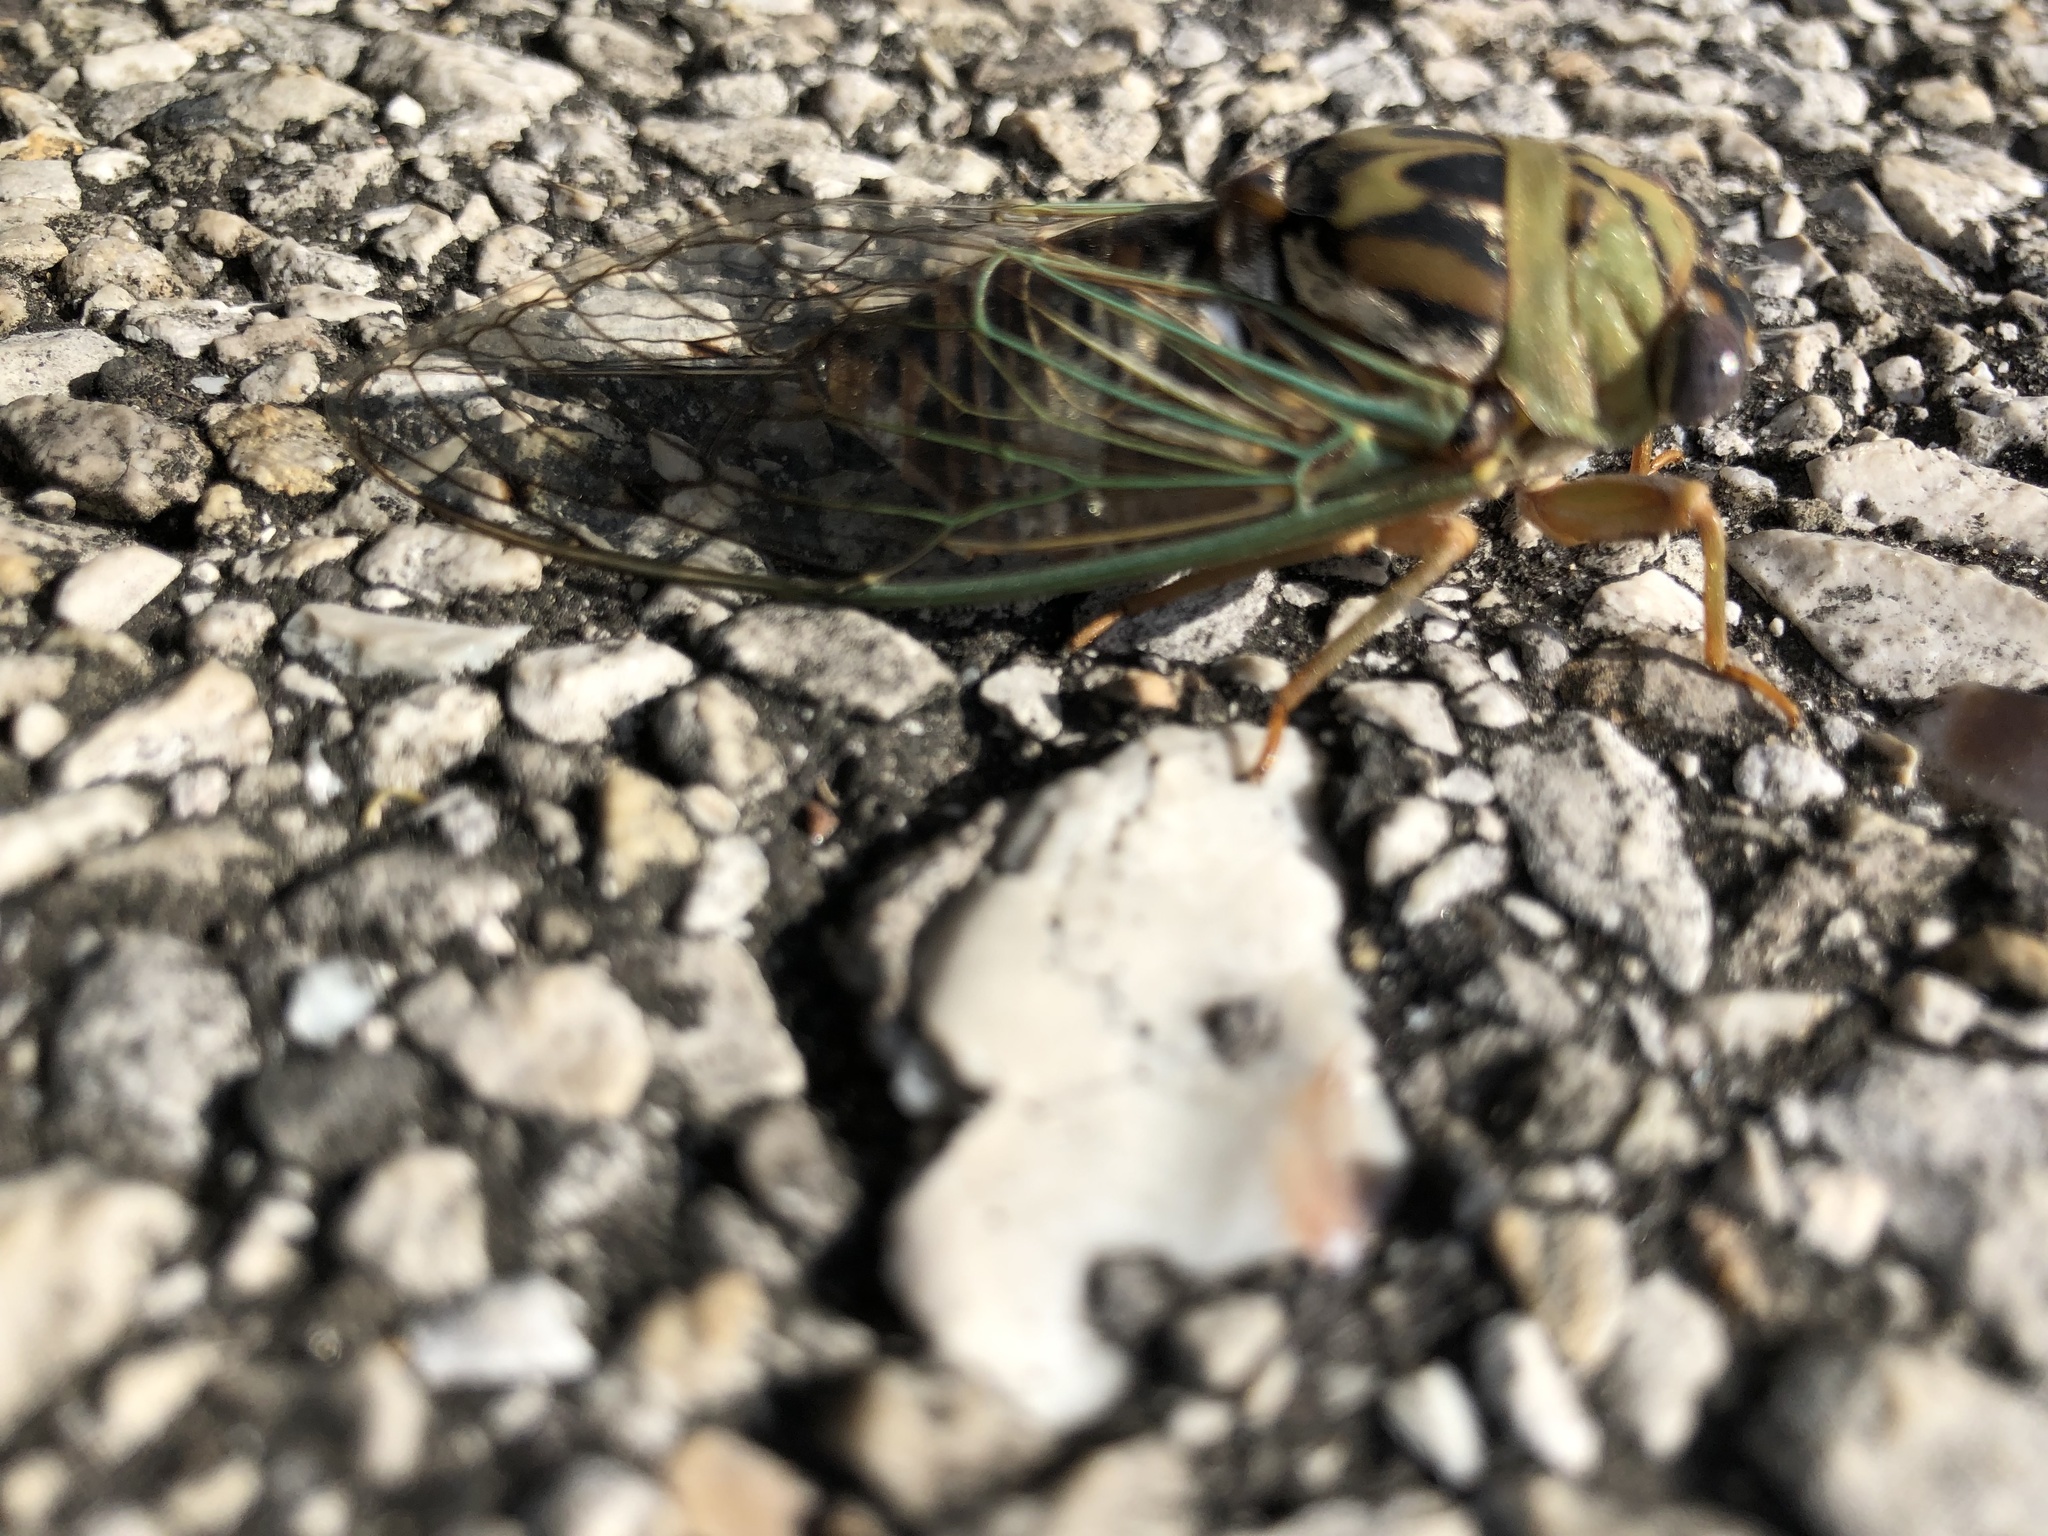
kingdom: Animalia
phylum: Arthropoda
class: Insecta
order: Hemiptera
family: Cicadidae
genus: Megatibicen
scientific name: Megatibicen resh
